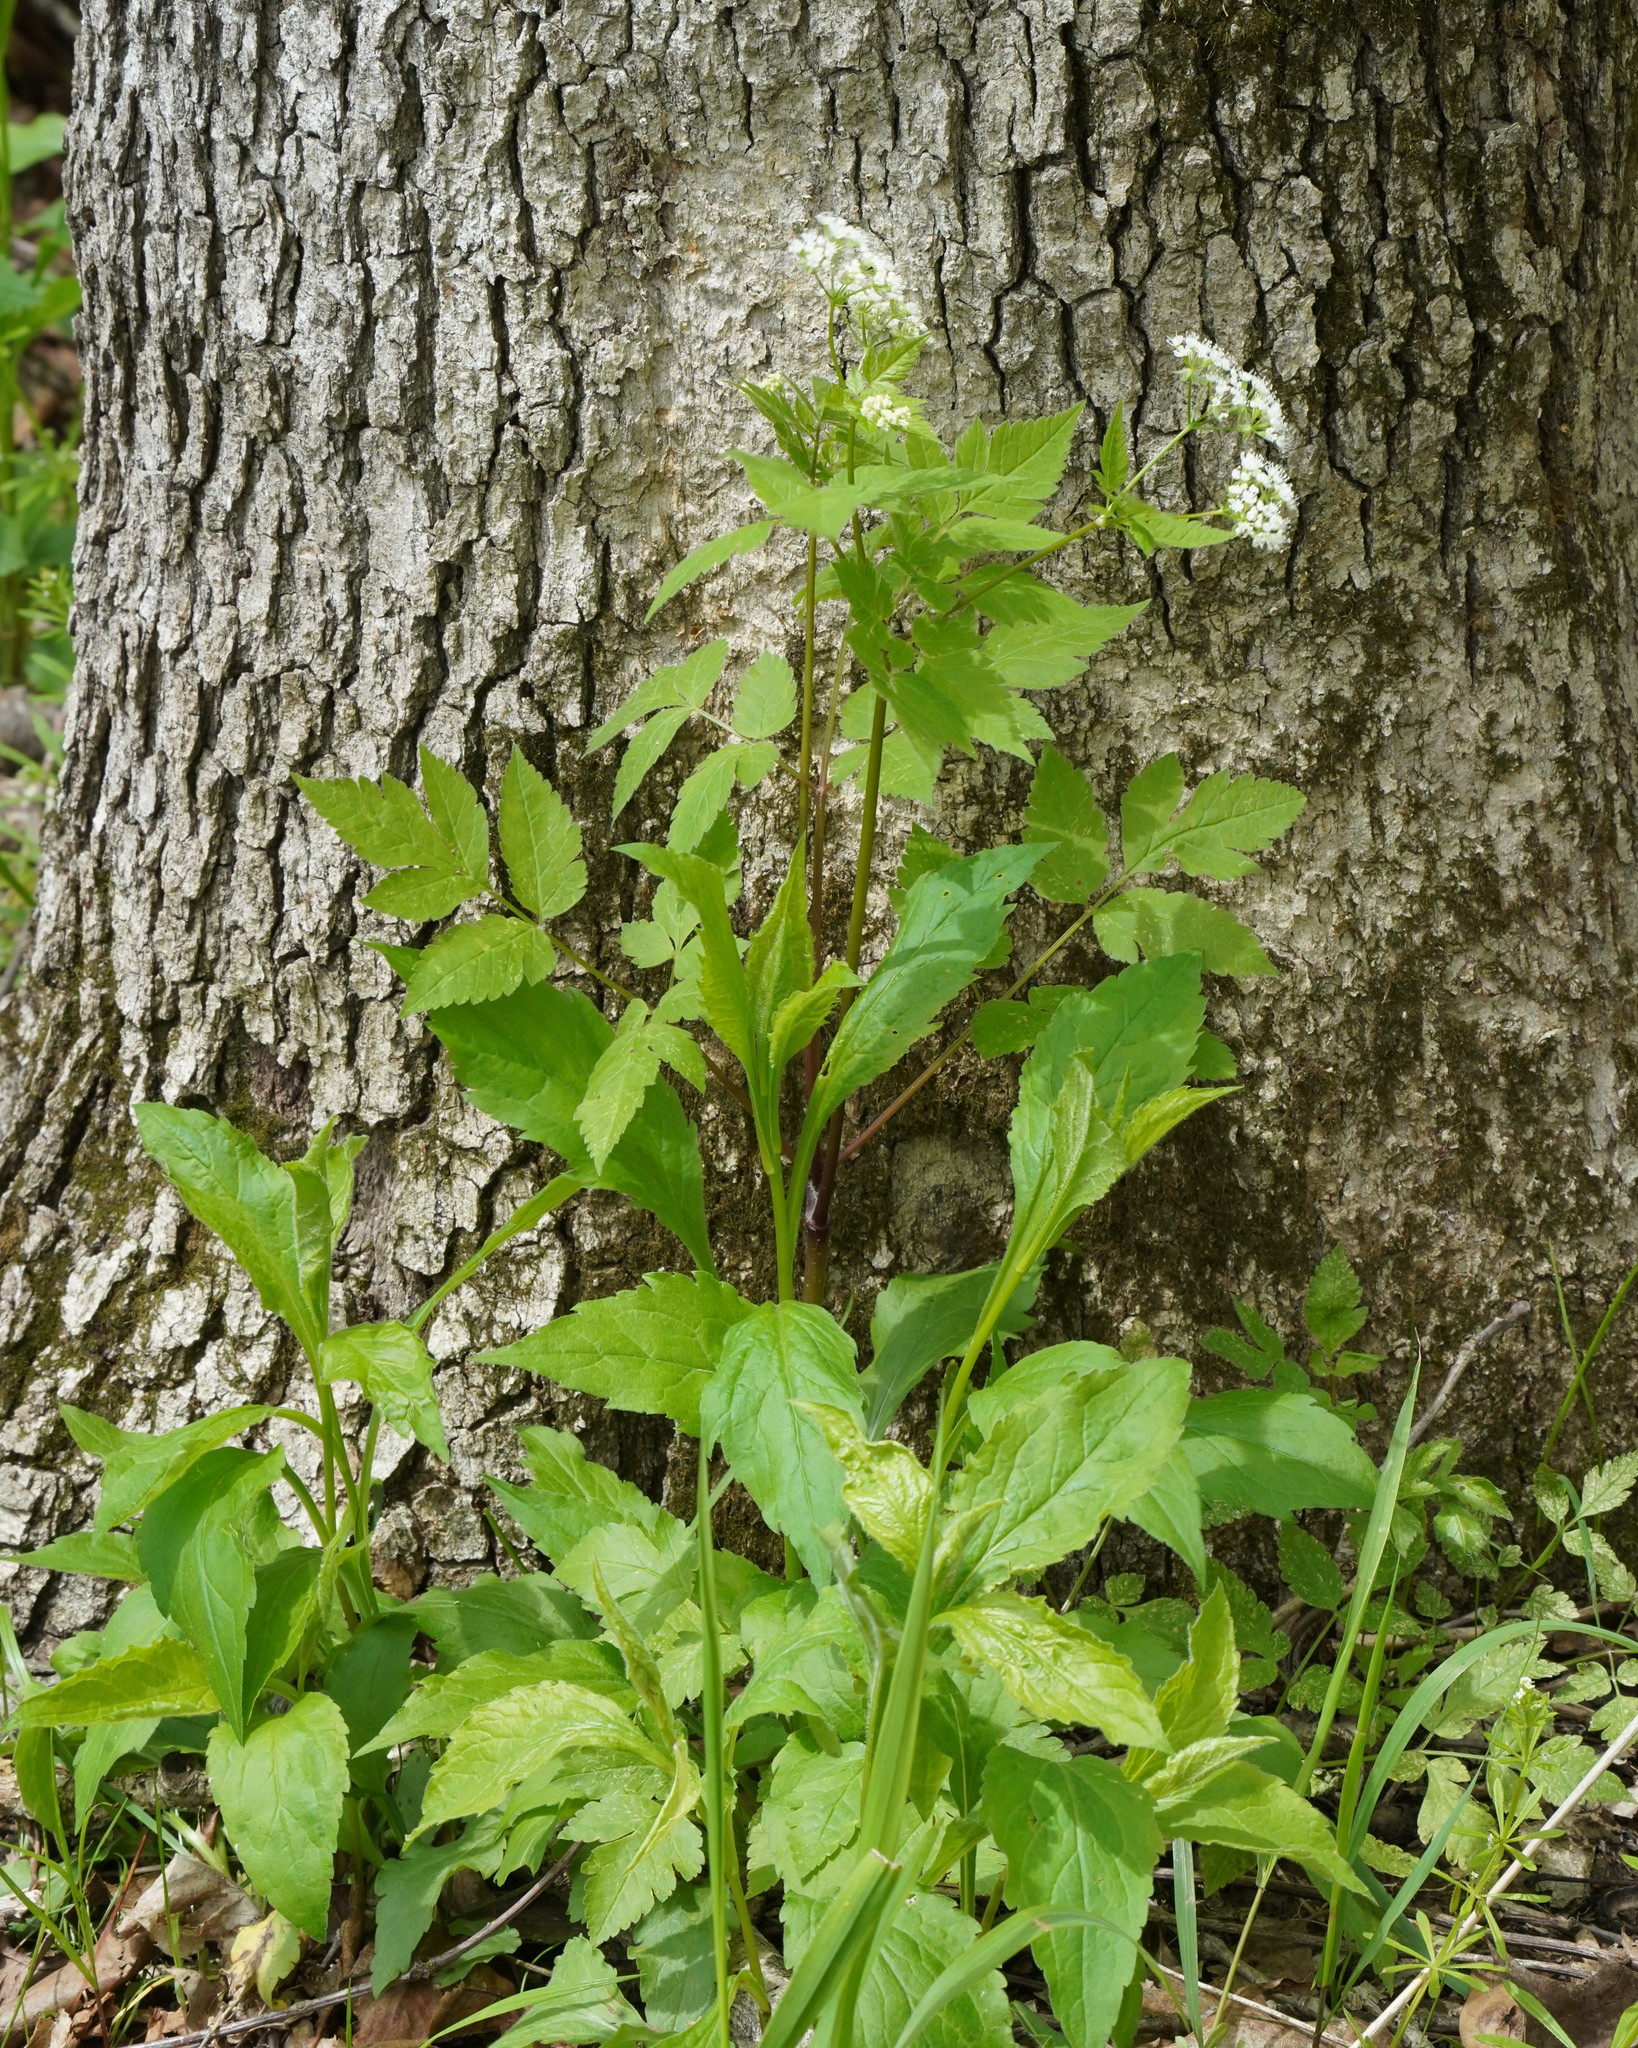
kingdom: Plantae
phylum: Tracheophyta
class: Magnoliopsida
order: Apiales
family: Apiaceae
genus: Osmorhiza
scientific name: Osmorhiza longistylis
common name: Smooth sweet cicely
